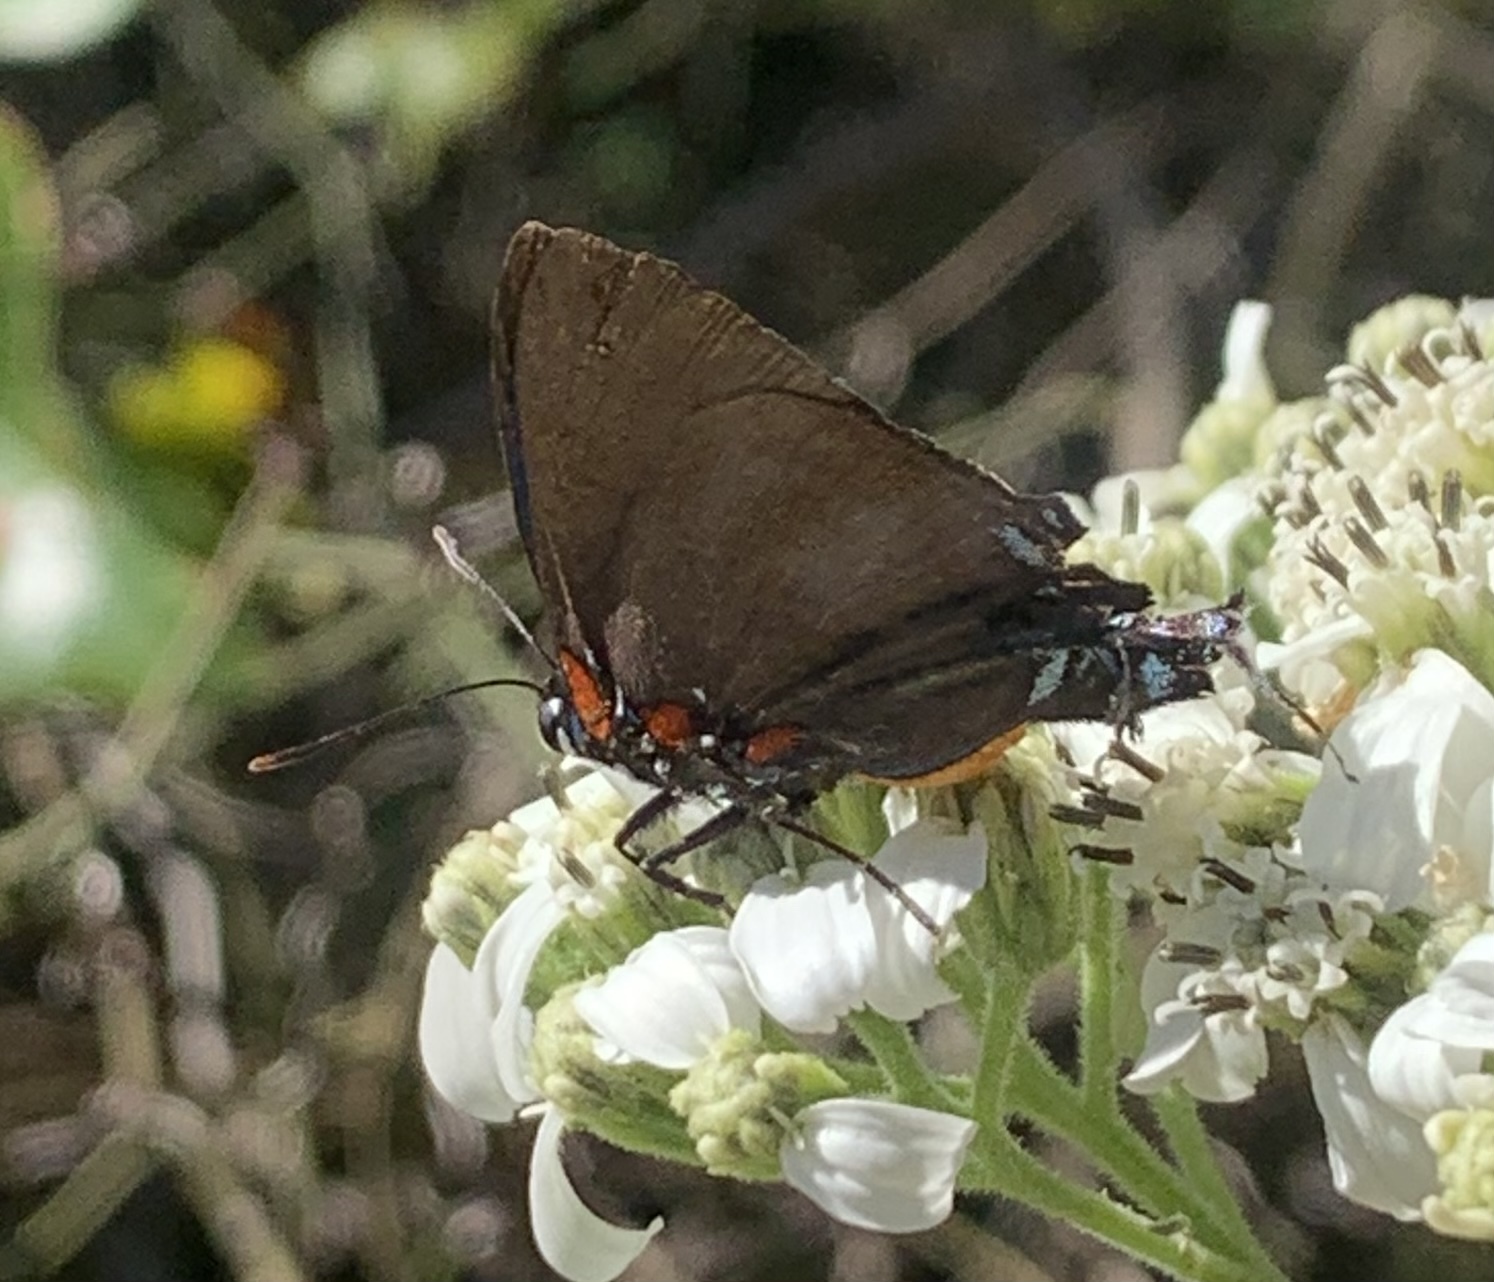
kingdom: Animalia
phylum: Arthropoda
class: Insecta
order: Lepidoptera
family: Lycaenidae
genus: Atlides
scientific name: Atlides halesus
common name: Great purple hairstreak
